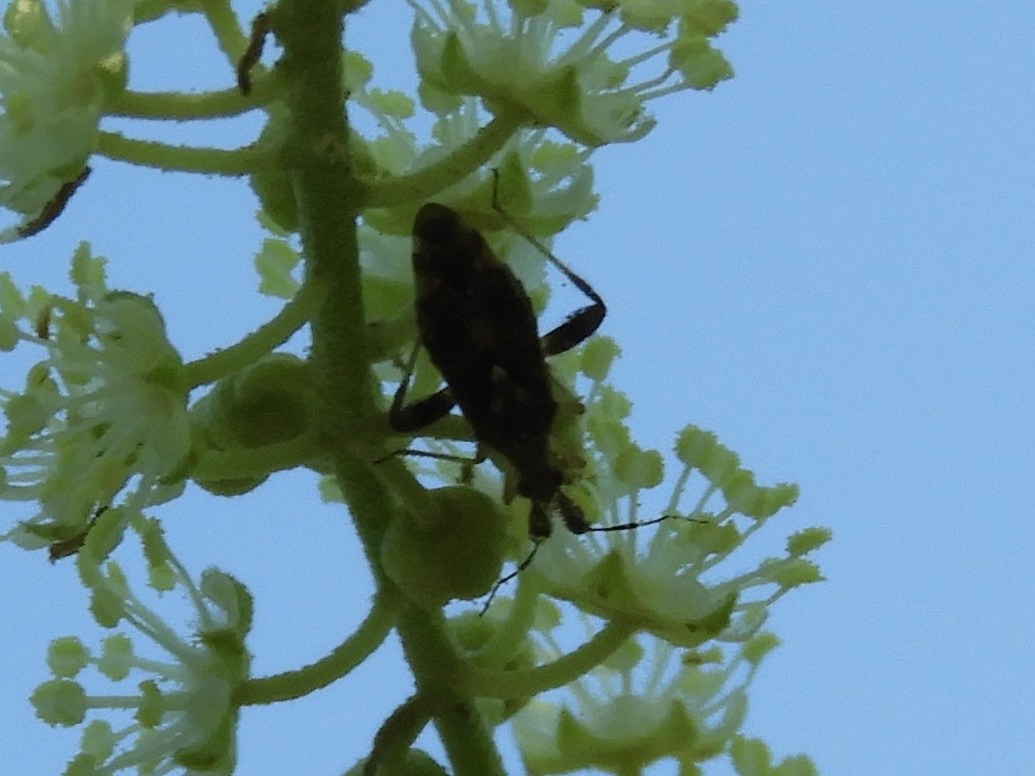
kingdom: Animalia
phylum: Arthropoda
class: Insecta
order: Hemiptera
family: Miridae
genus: Neurocolpus
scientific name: Neurocolpus
